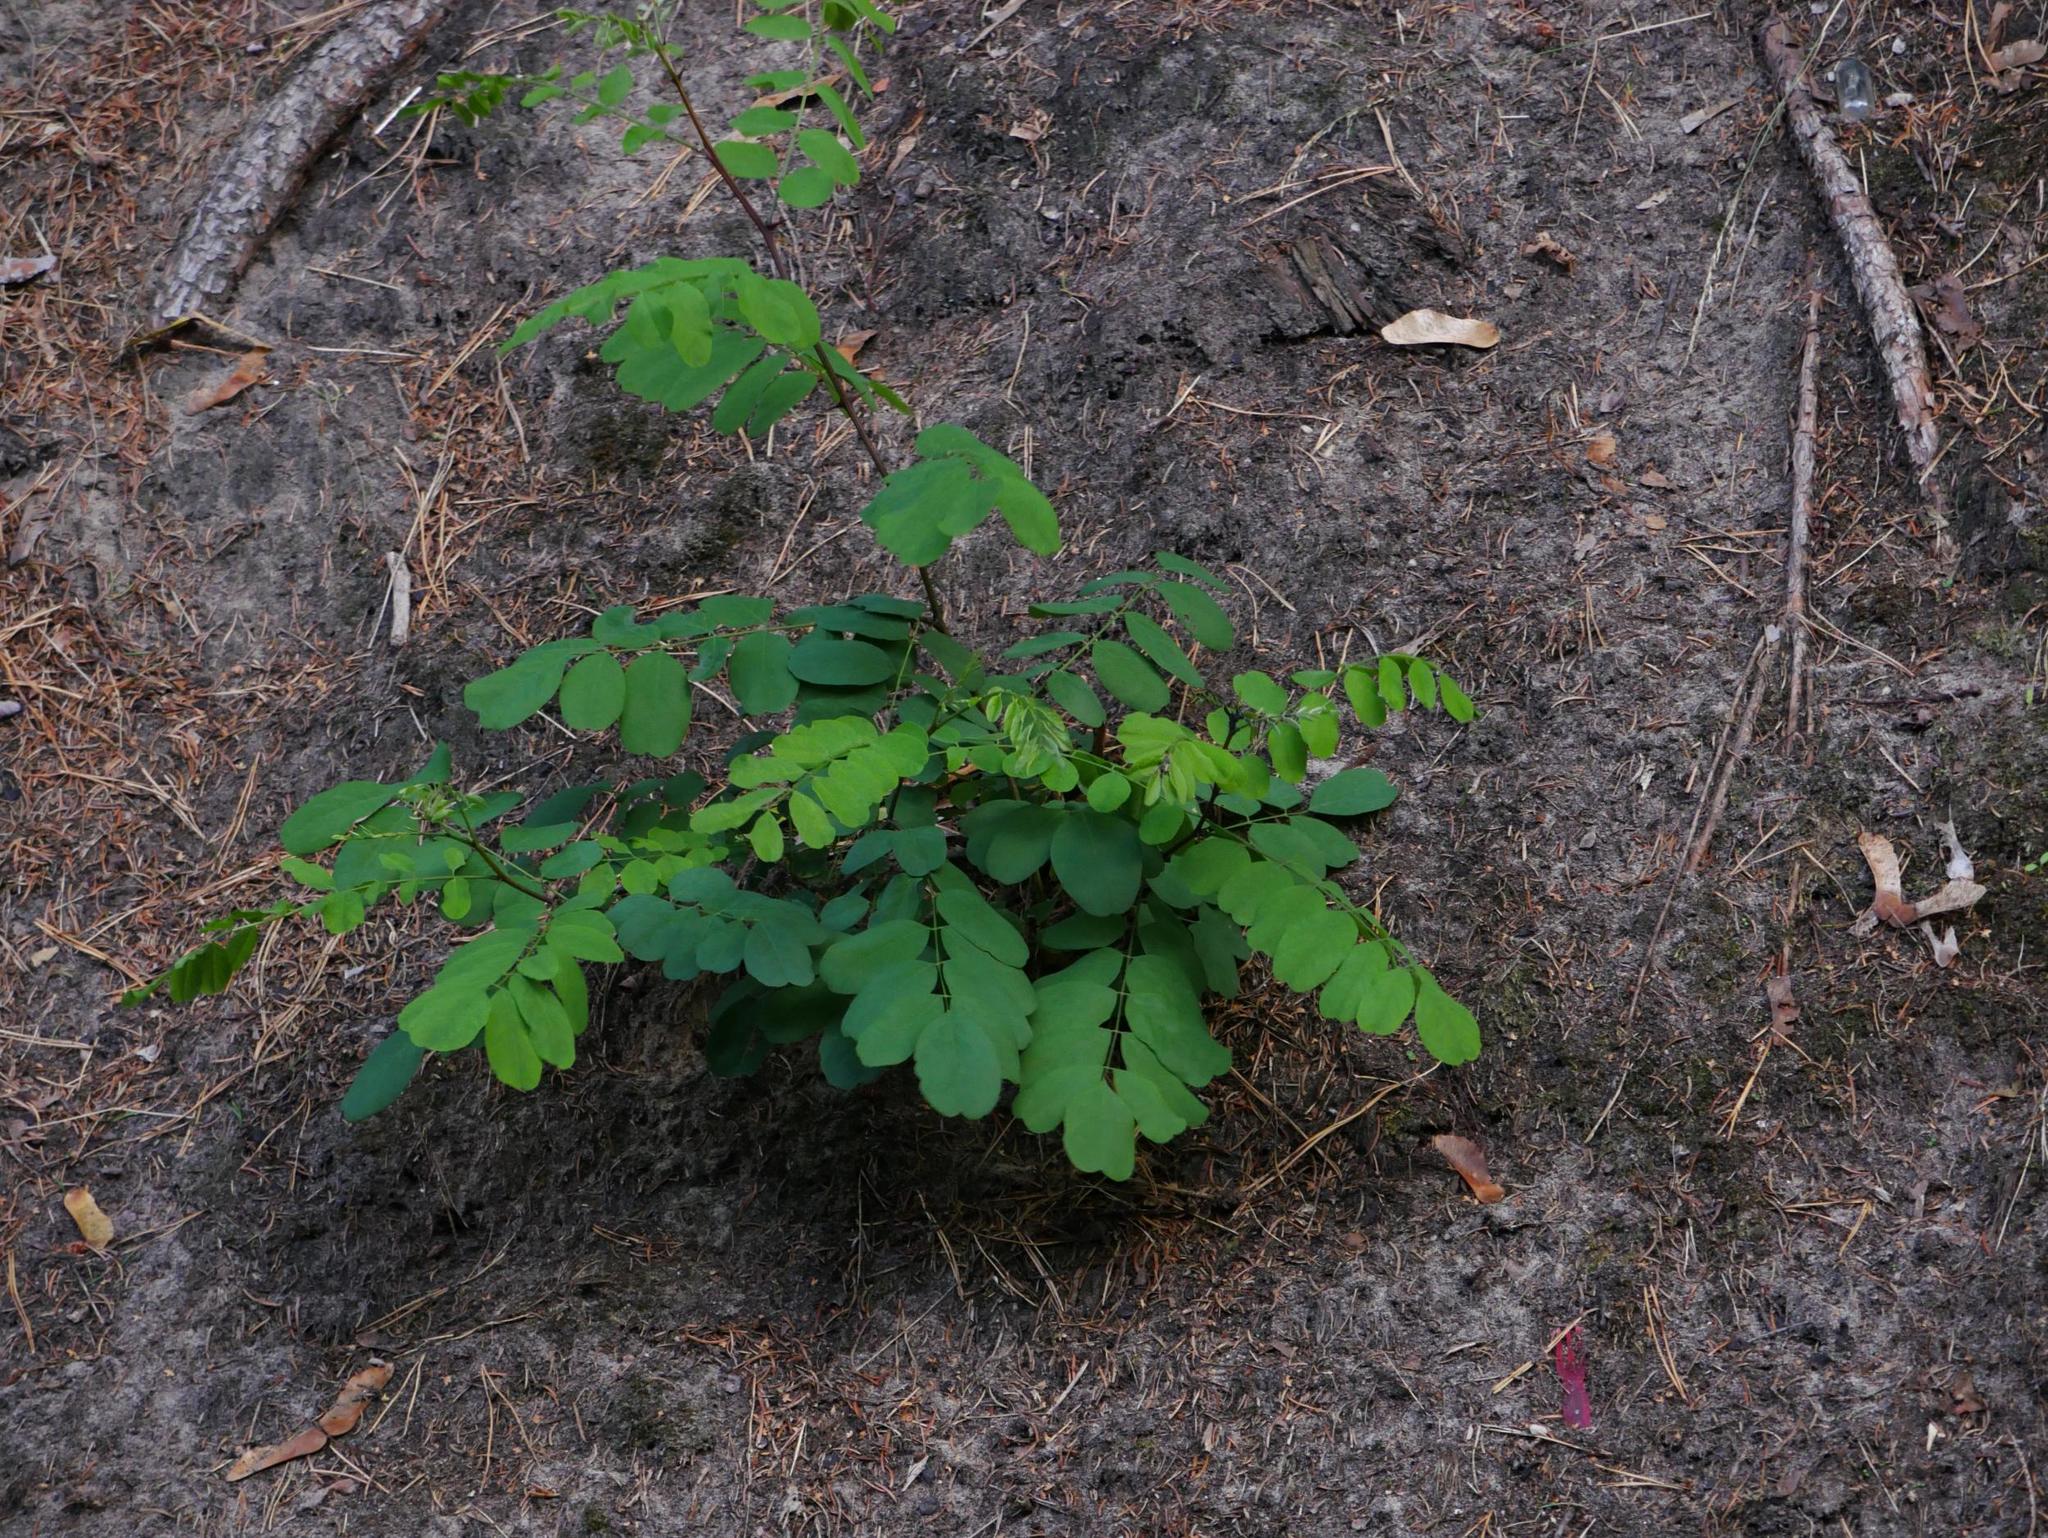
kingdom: Plantae
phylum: Tracheophyta
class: Magnoliopsida
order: Fabales
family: Fabaceae
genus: Robinia
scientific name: Robinia pseudoacacia
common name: Black locust
